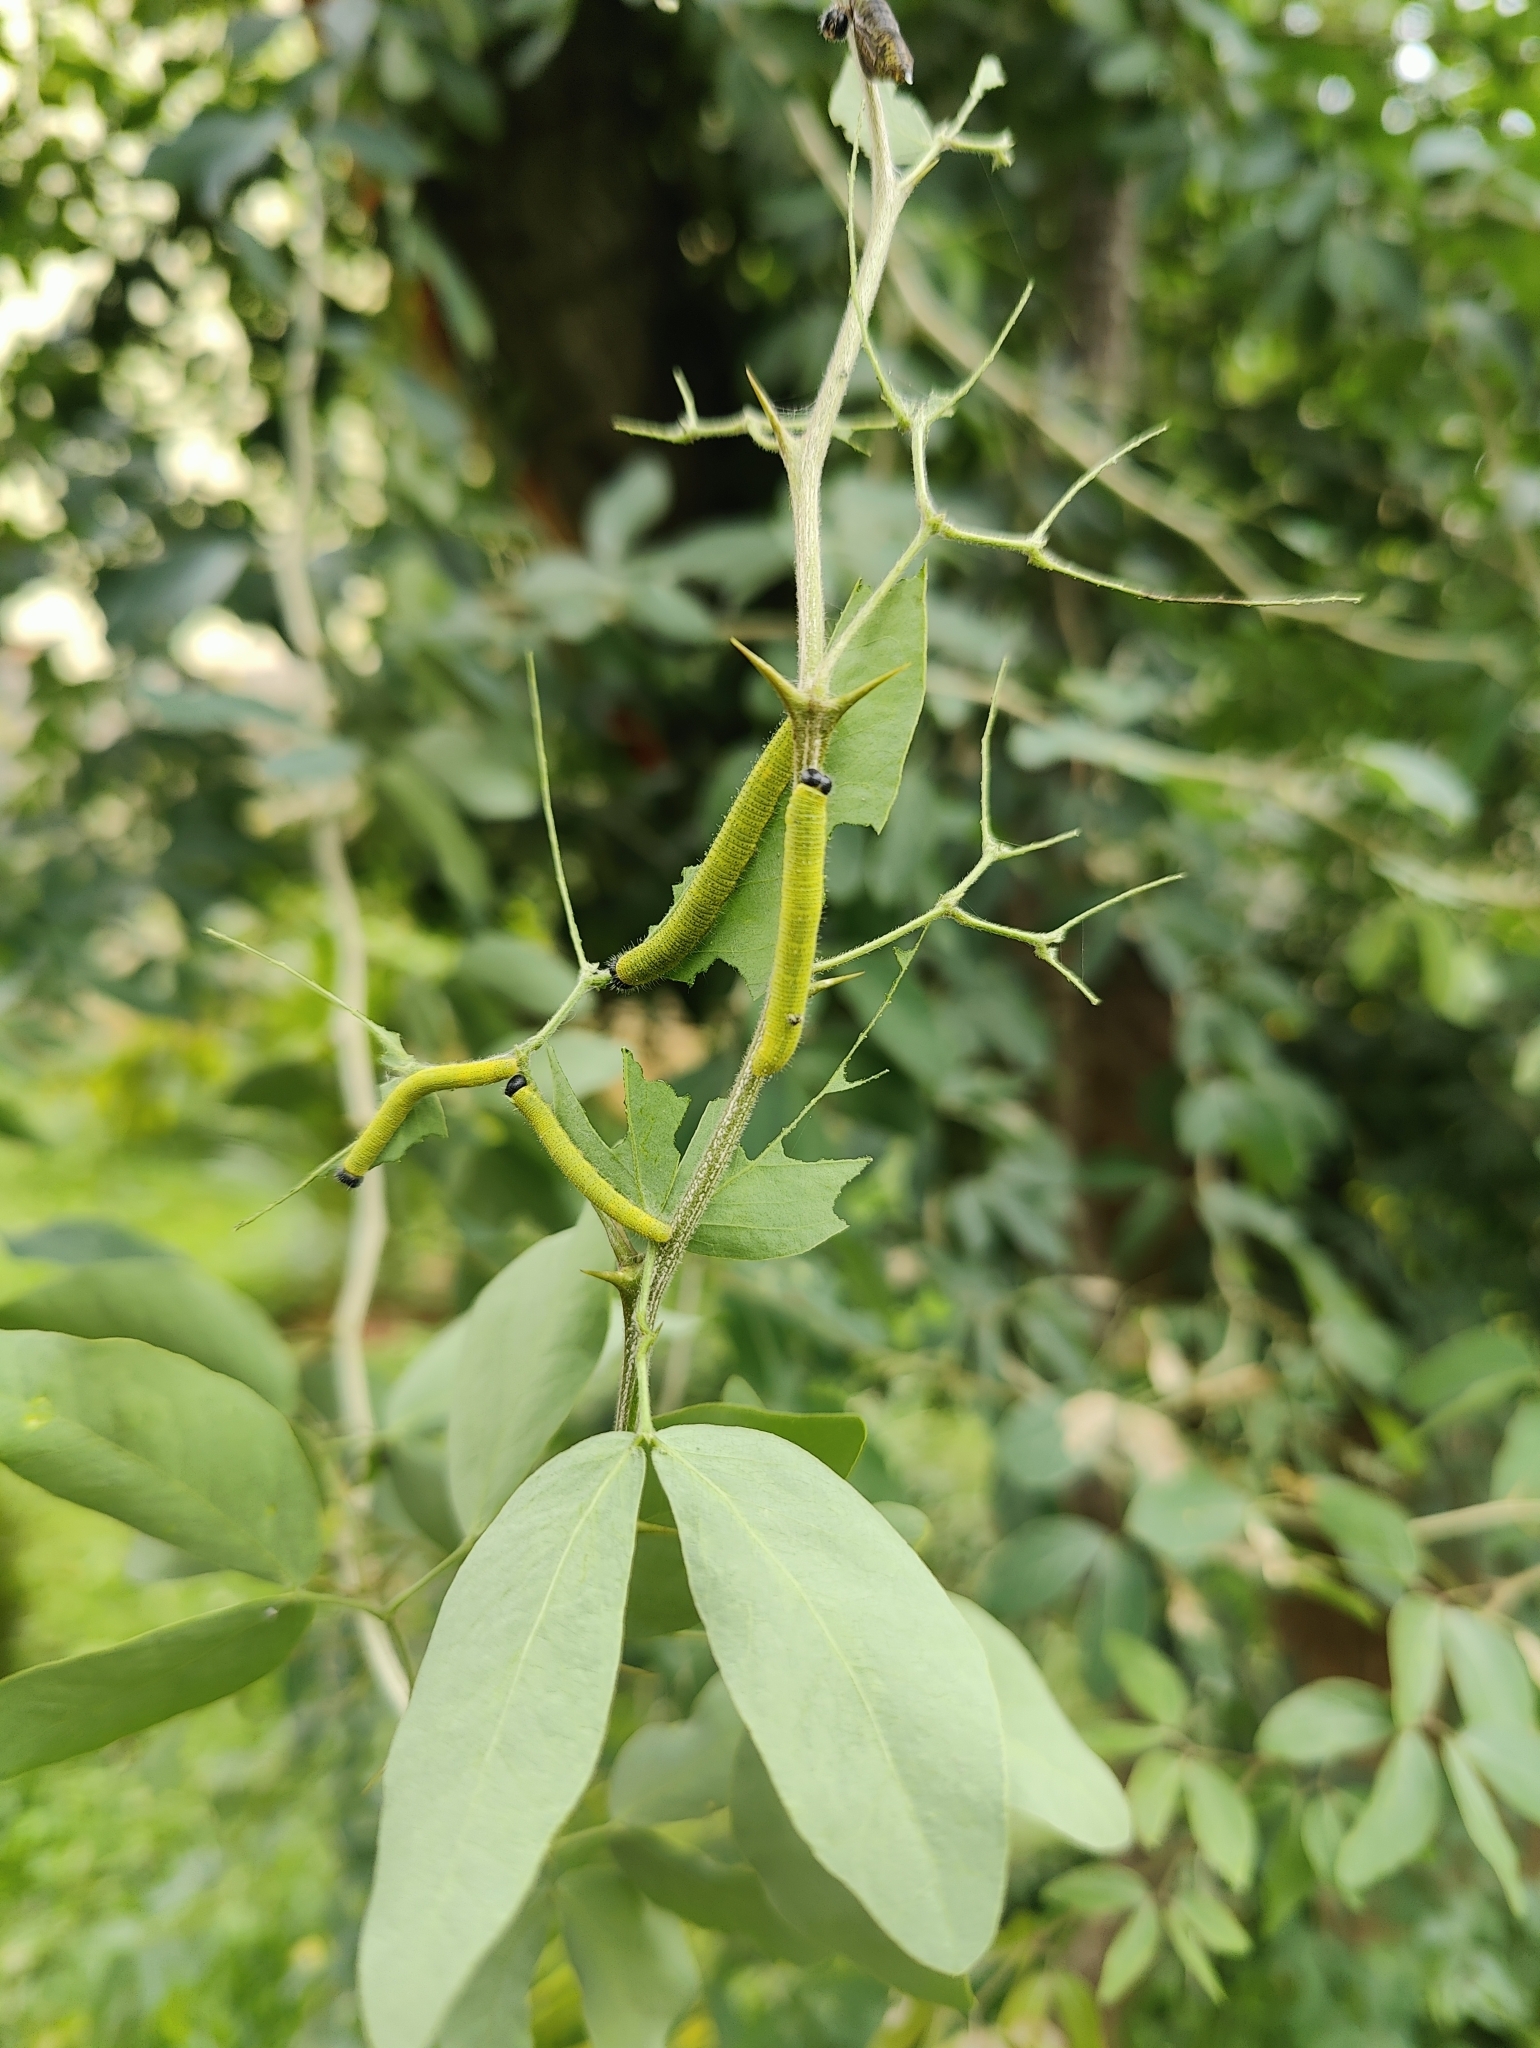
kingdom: Animalia
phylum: Arthropoda
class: Insecta
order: Lepidoptera
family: Pieridae
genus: Eurema
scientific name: Eurema blanda
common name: Three-spot grass yellow
